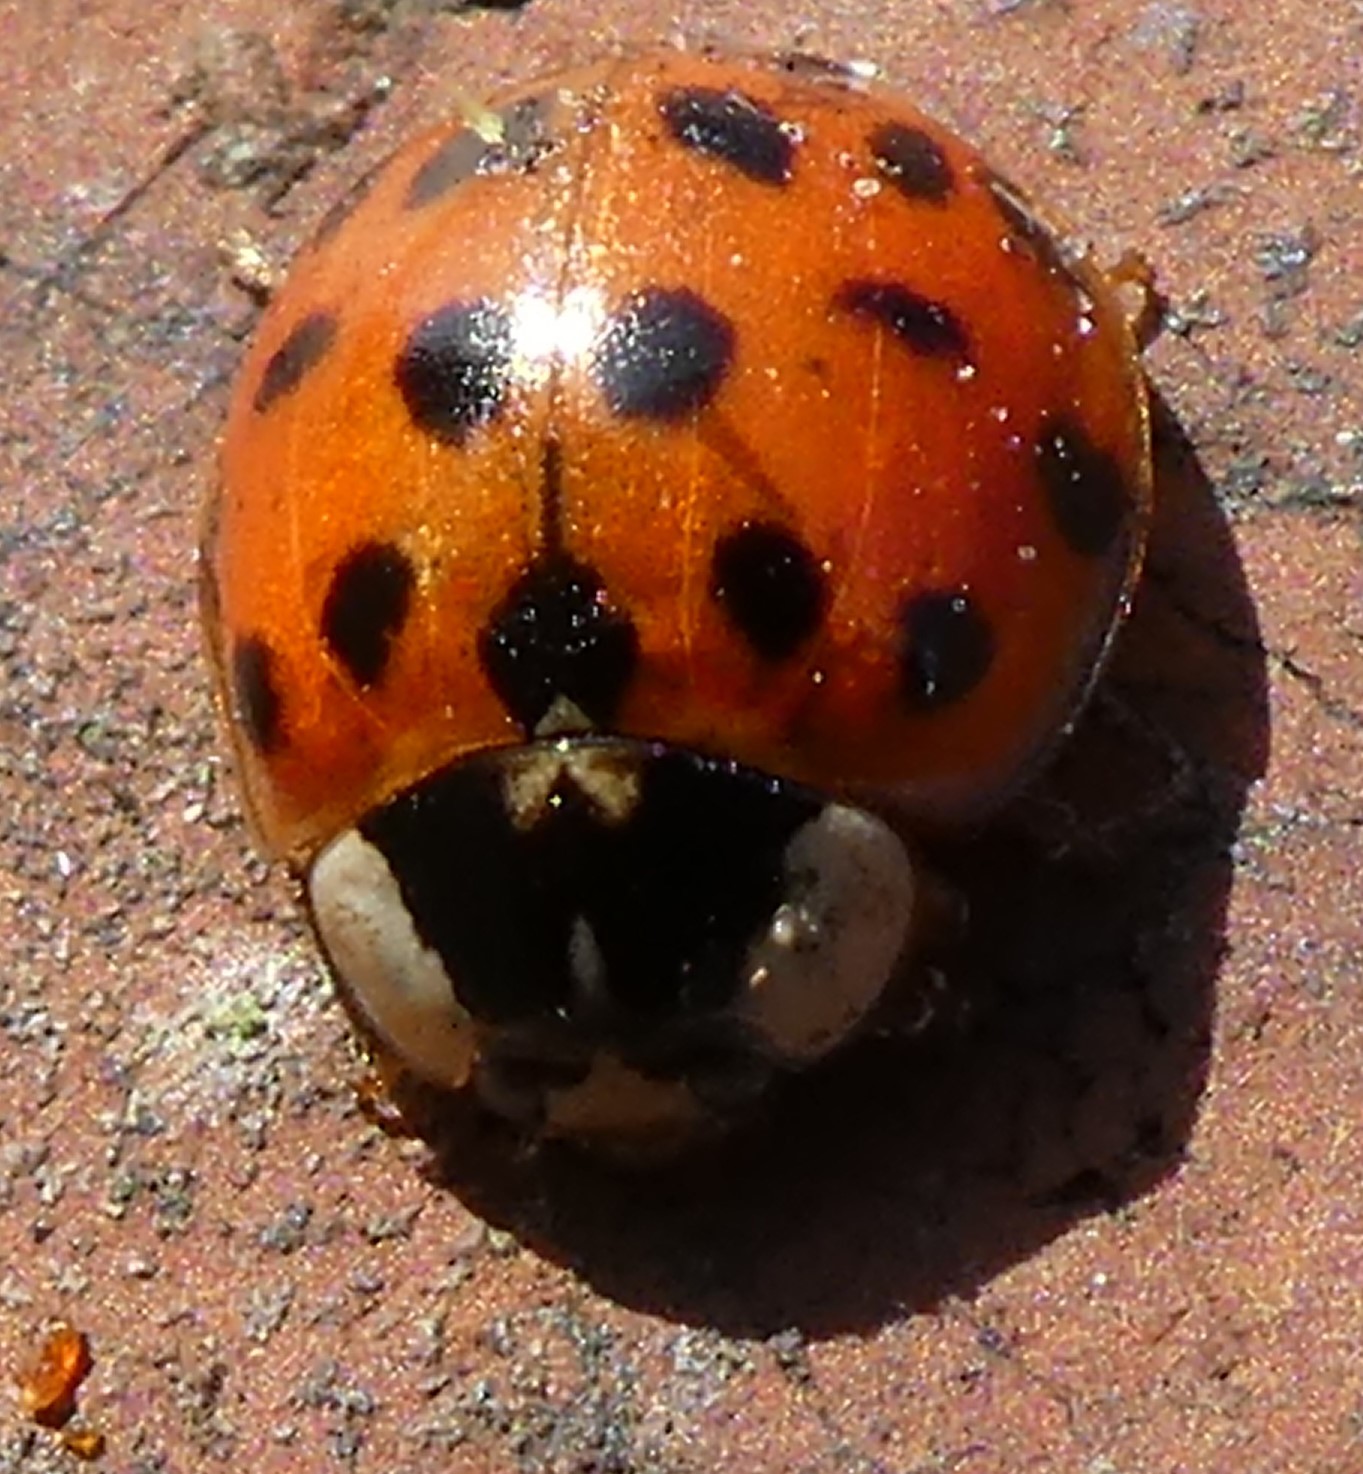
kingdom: Animalia
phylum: Arthropoda
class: Insecta
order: Coleoptera
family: Coccinellidae
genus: Harmonia
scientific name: Harmonia axyridis
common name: Harlequin ladybird
